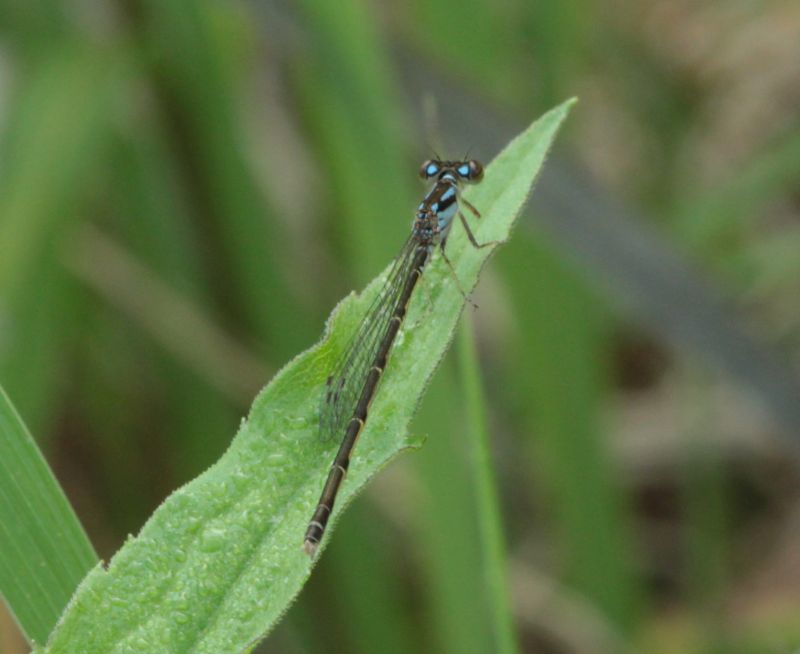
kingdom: Animalia
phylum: Arthropoda
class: Insecta
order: Odonata
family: Coenagrionidae
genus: Ischnura
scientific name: Ischnura posita
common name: Fragile forktail
